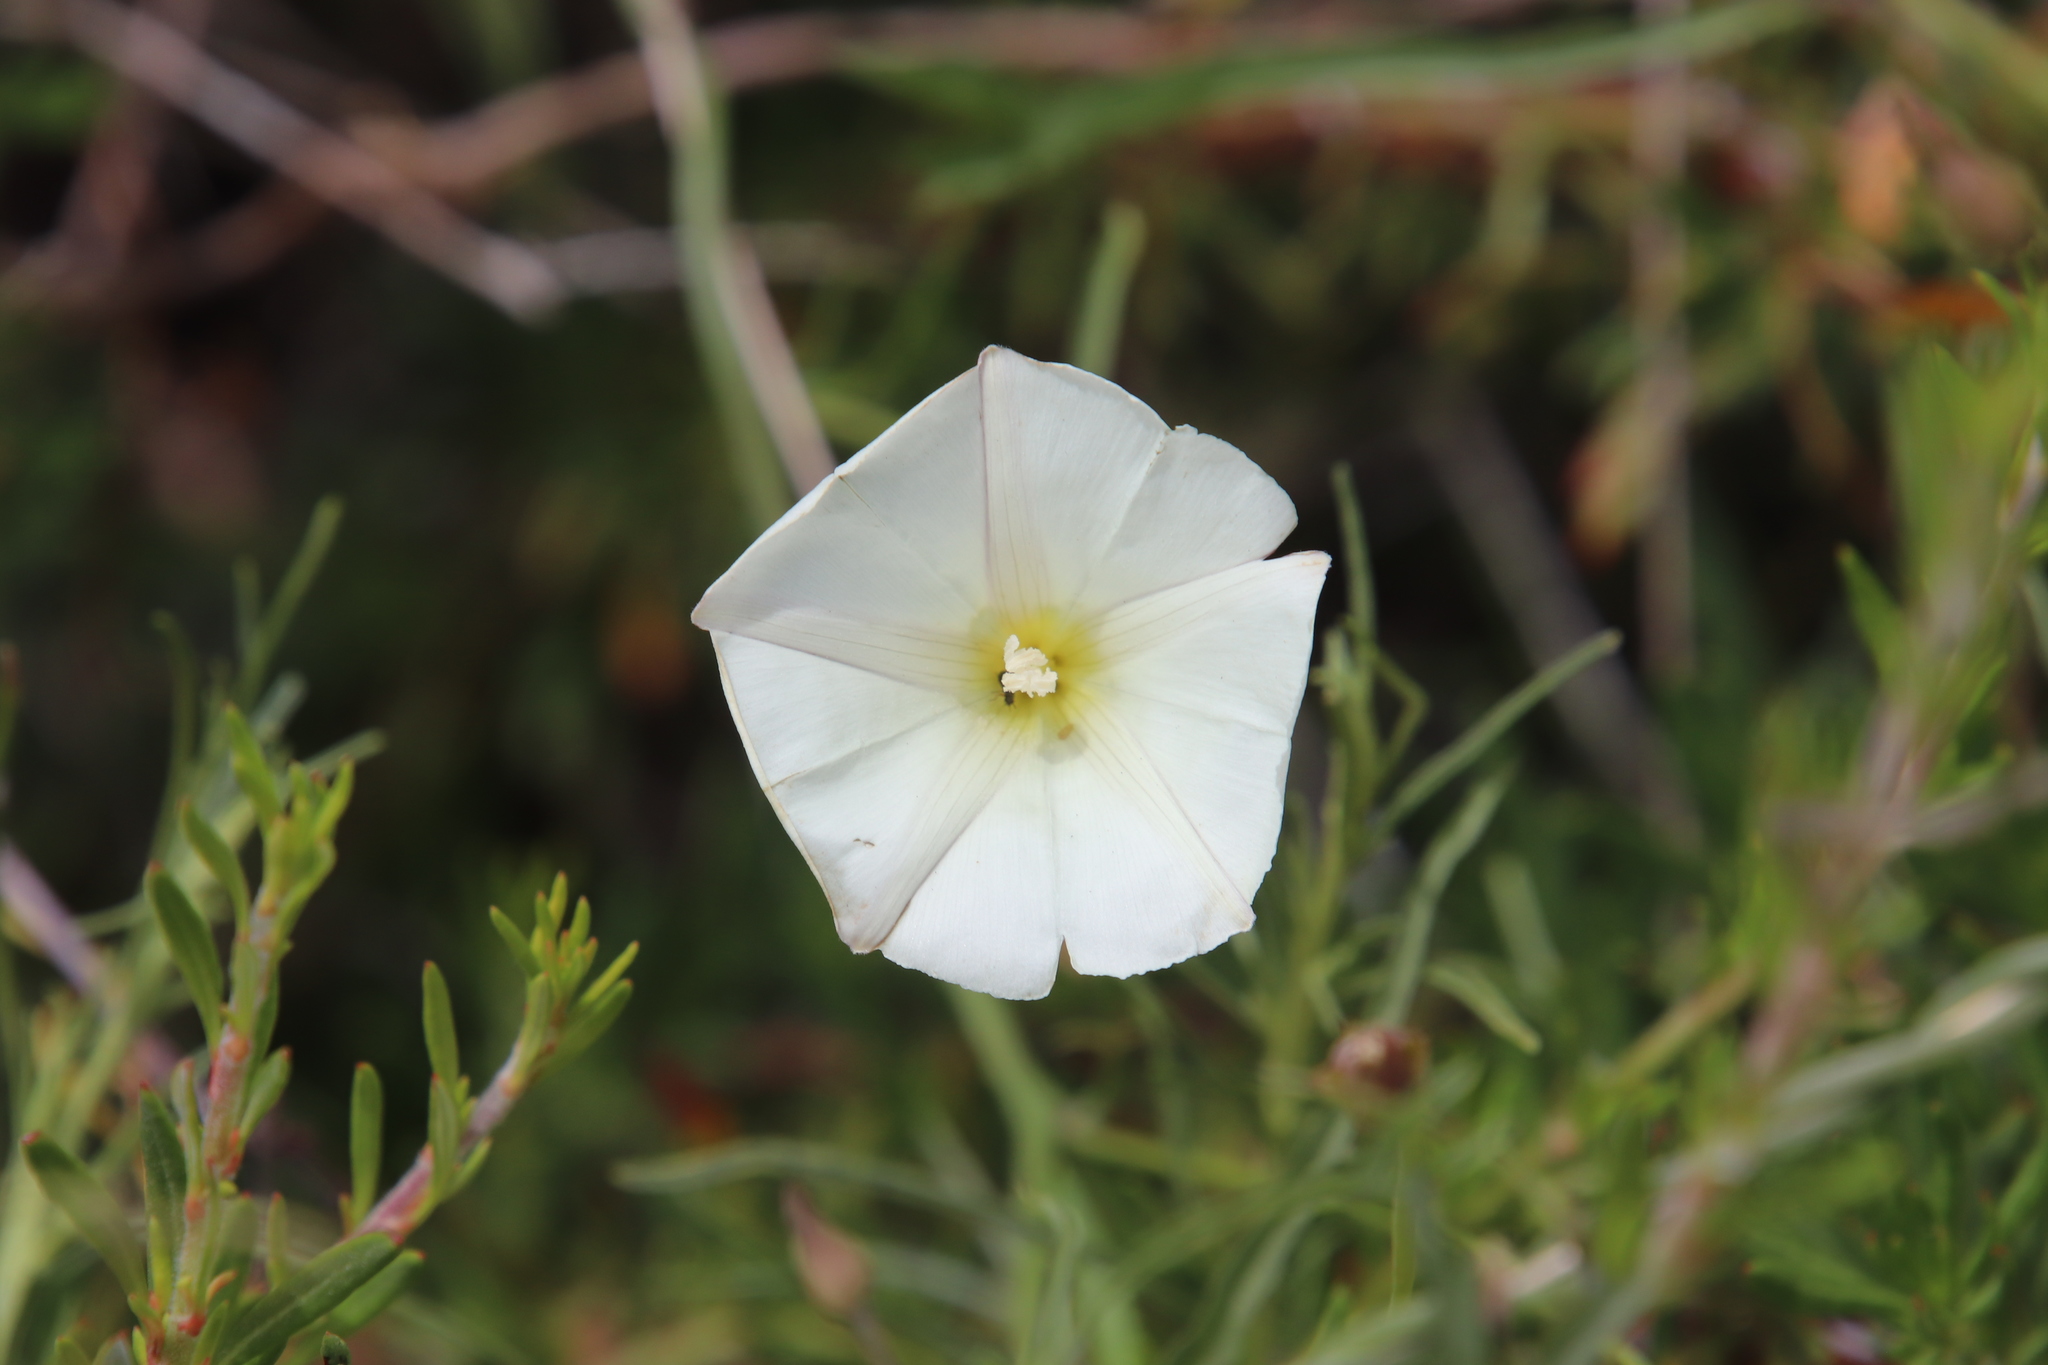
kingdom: Plantae
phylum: Tracheophyta
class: Magnoliopsida
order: Solanales
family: Convolvulaceae
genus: Calystegia
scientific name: Calystegia macrostegia
